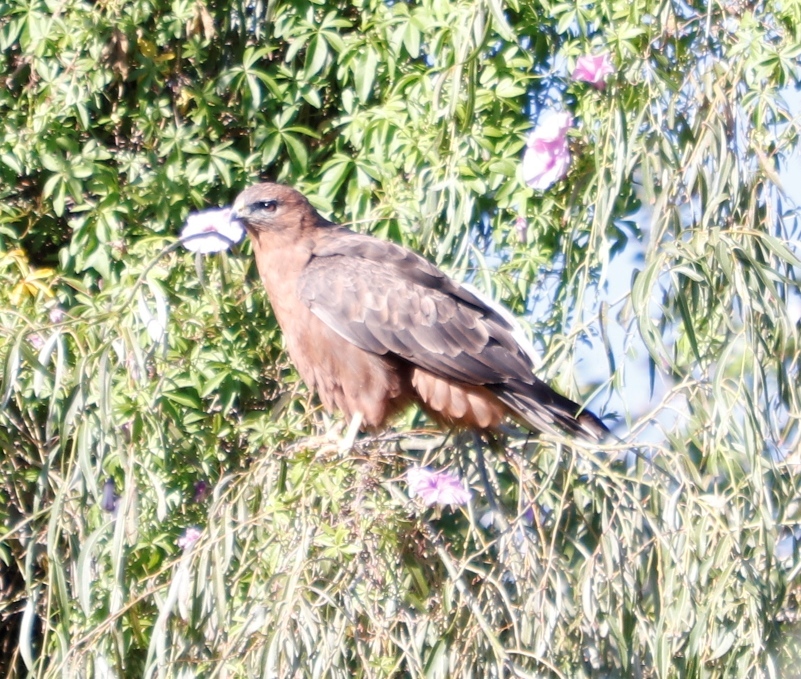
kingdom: Animalia
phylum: Chordata
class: Aves
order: Accipitriformes
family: Accipitridae
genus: Buteo
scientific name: Buteo buteo
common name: Common buzzard
